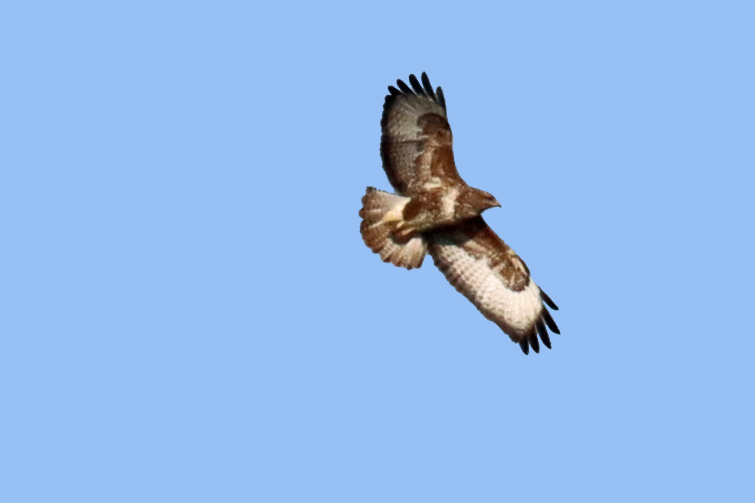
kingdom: Animalia
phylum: Chordata
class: Aves
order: Accipitriformes
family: Accipitridae
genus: Buteo
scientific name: Buteo buteo
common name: Common buzzard
